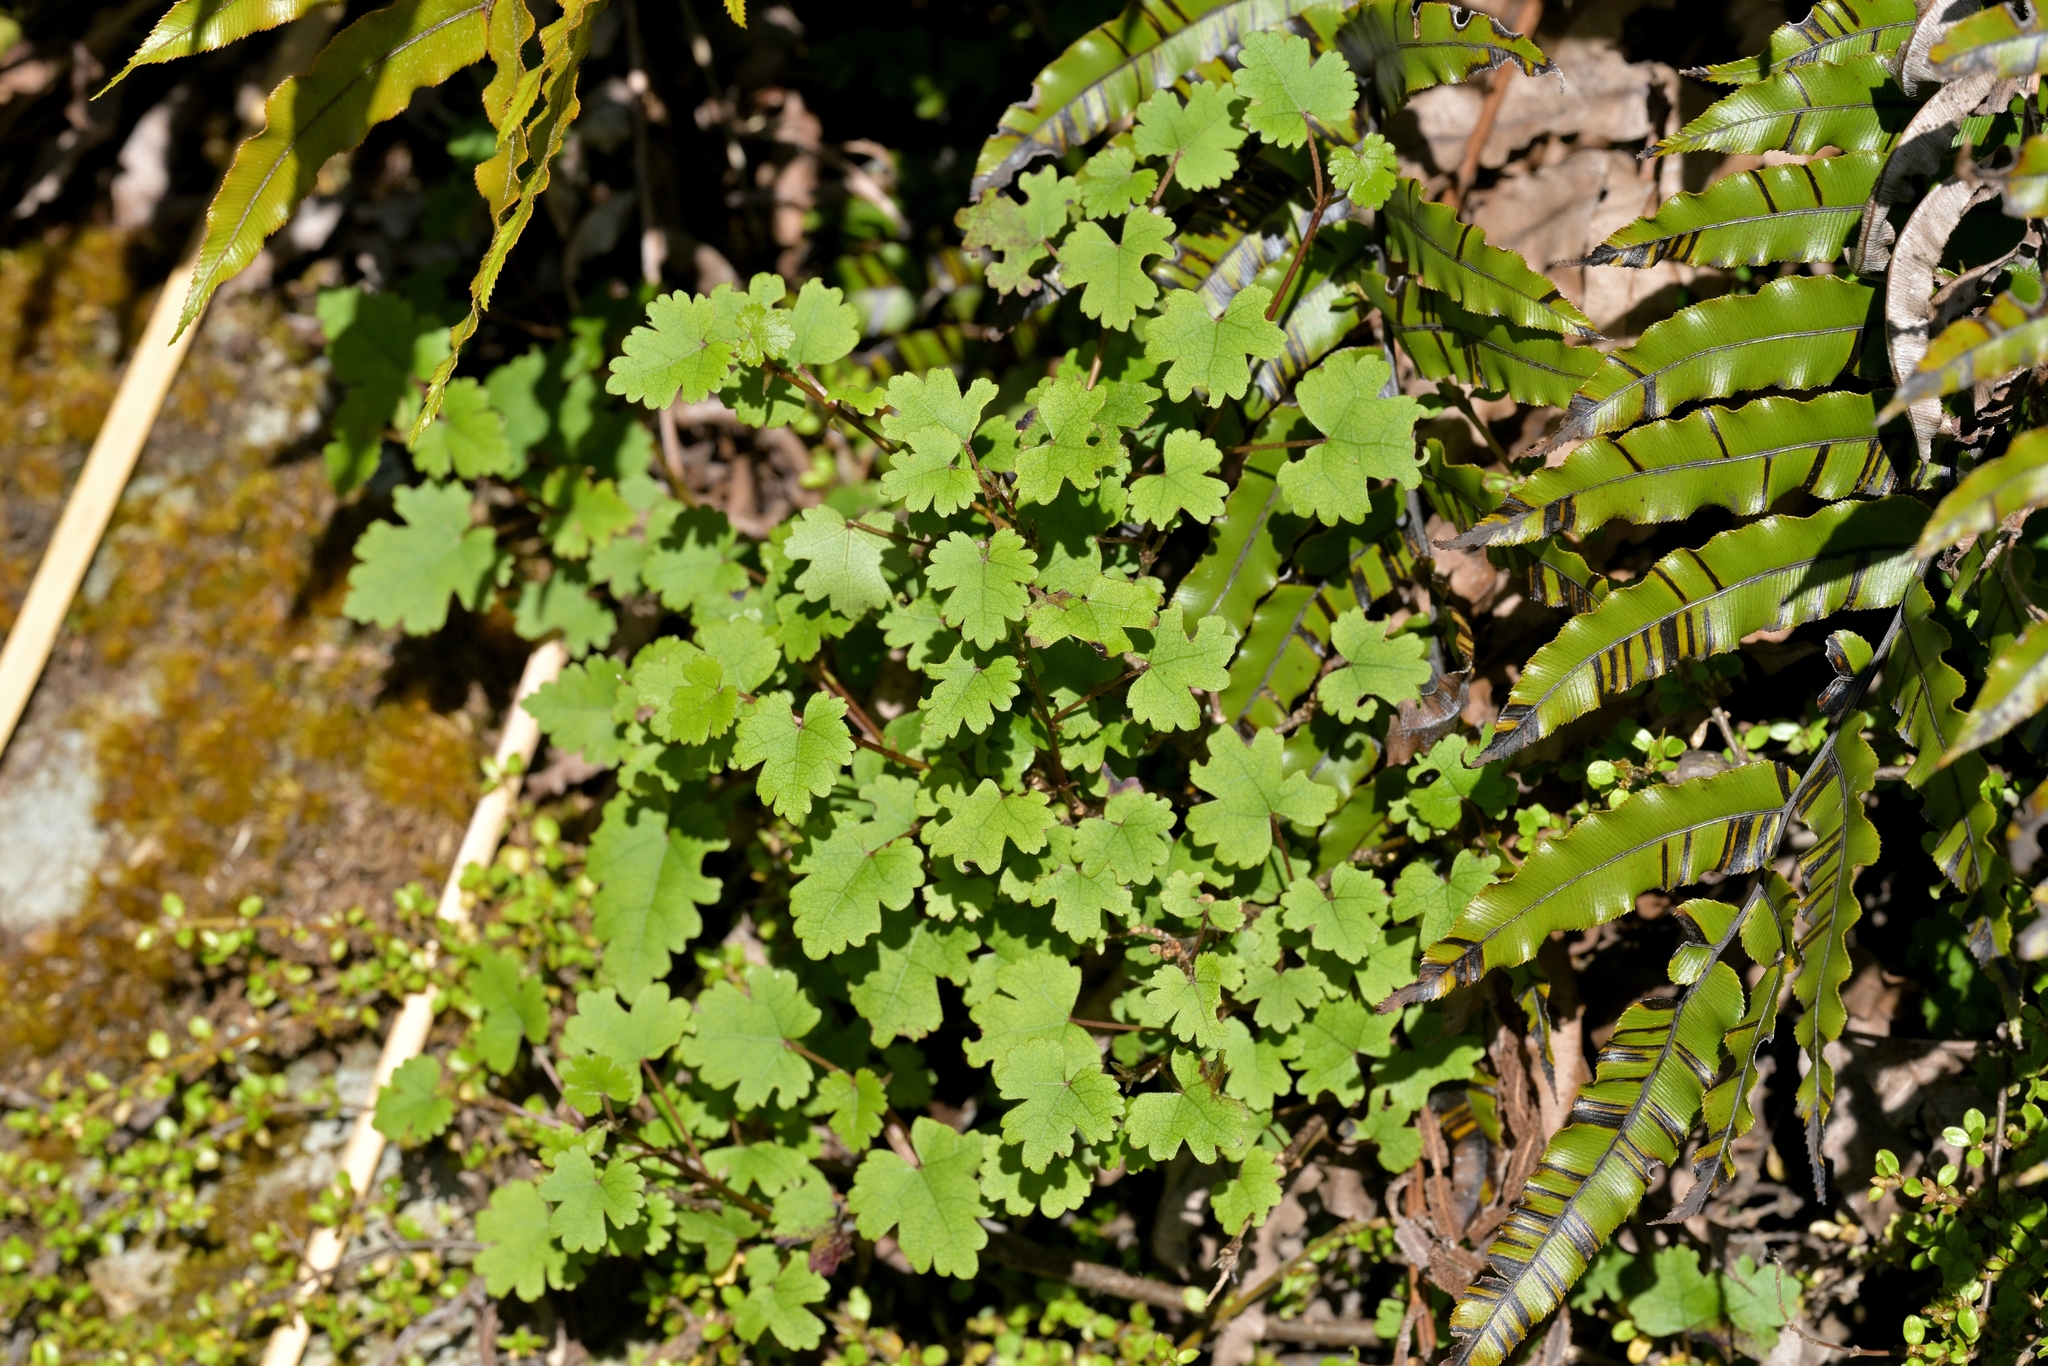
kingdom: Plantae
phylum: Tracheophyta
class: Magnoliopsida
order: Malvales
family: Malvaceae
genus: Hoheria
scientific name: Hoheria glabrata
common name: Mountain-ribbon
